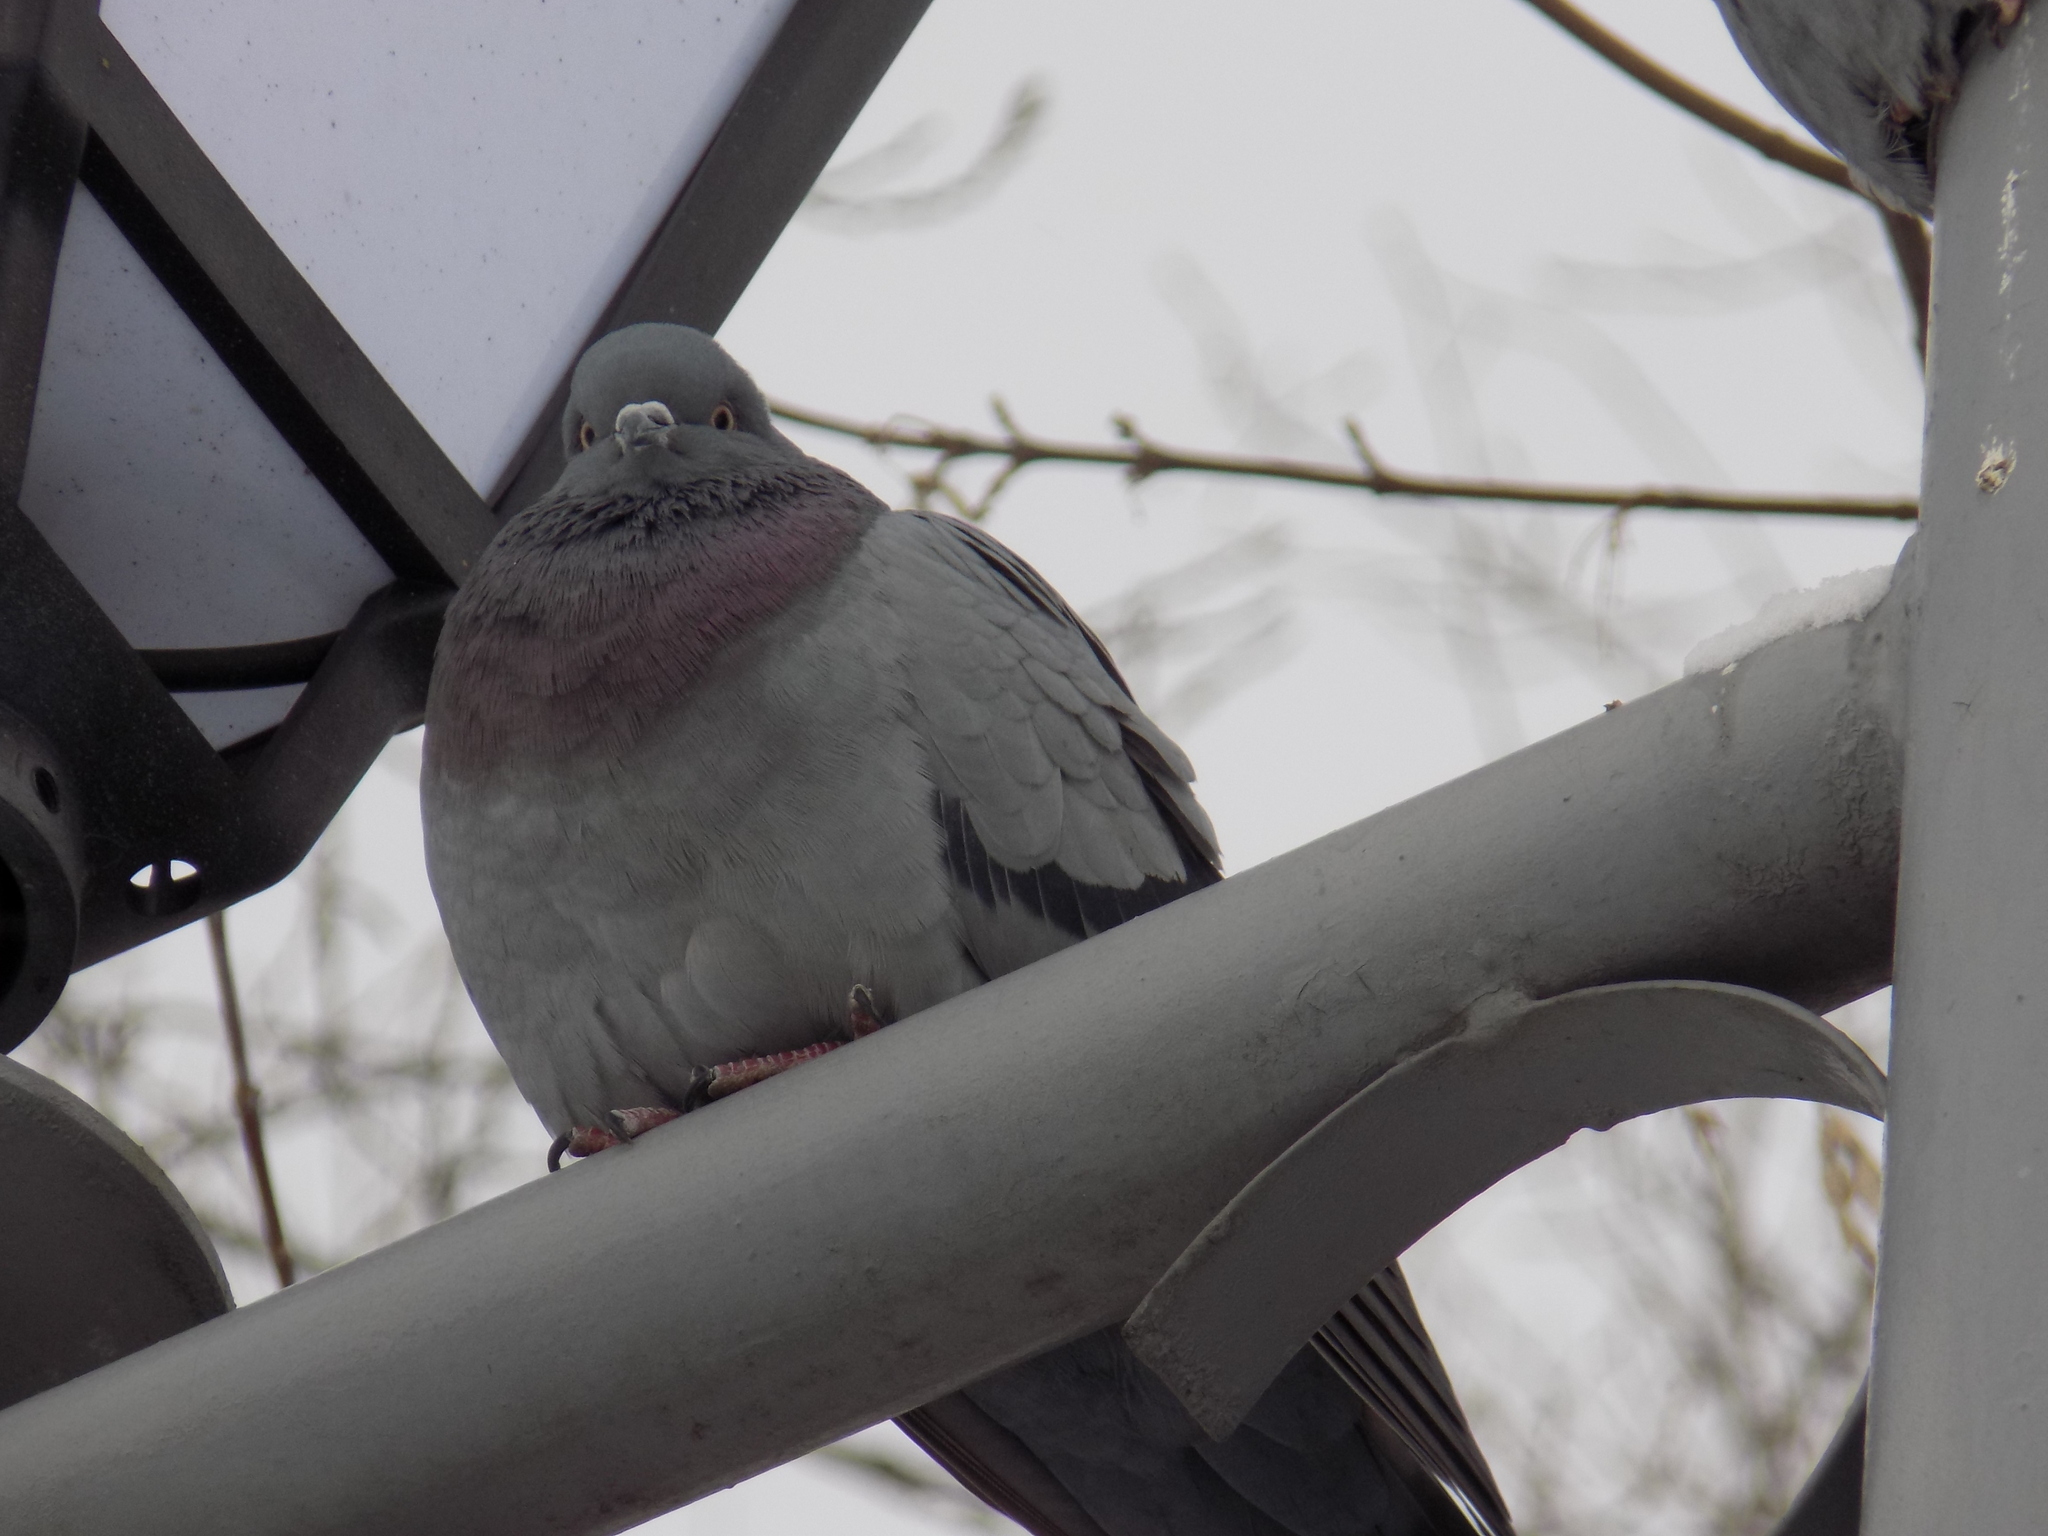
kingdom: Animalia
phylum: Chordata
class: Aves
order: Columbiformes
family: Columbidae
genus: Columba
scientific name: Columba livia
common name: Rock pigeon
